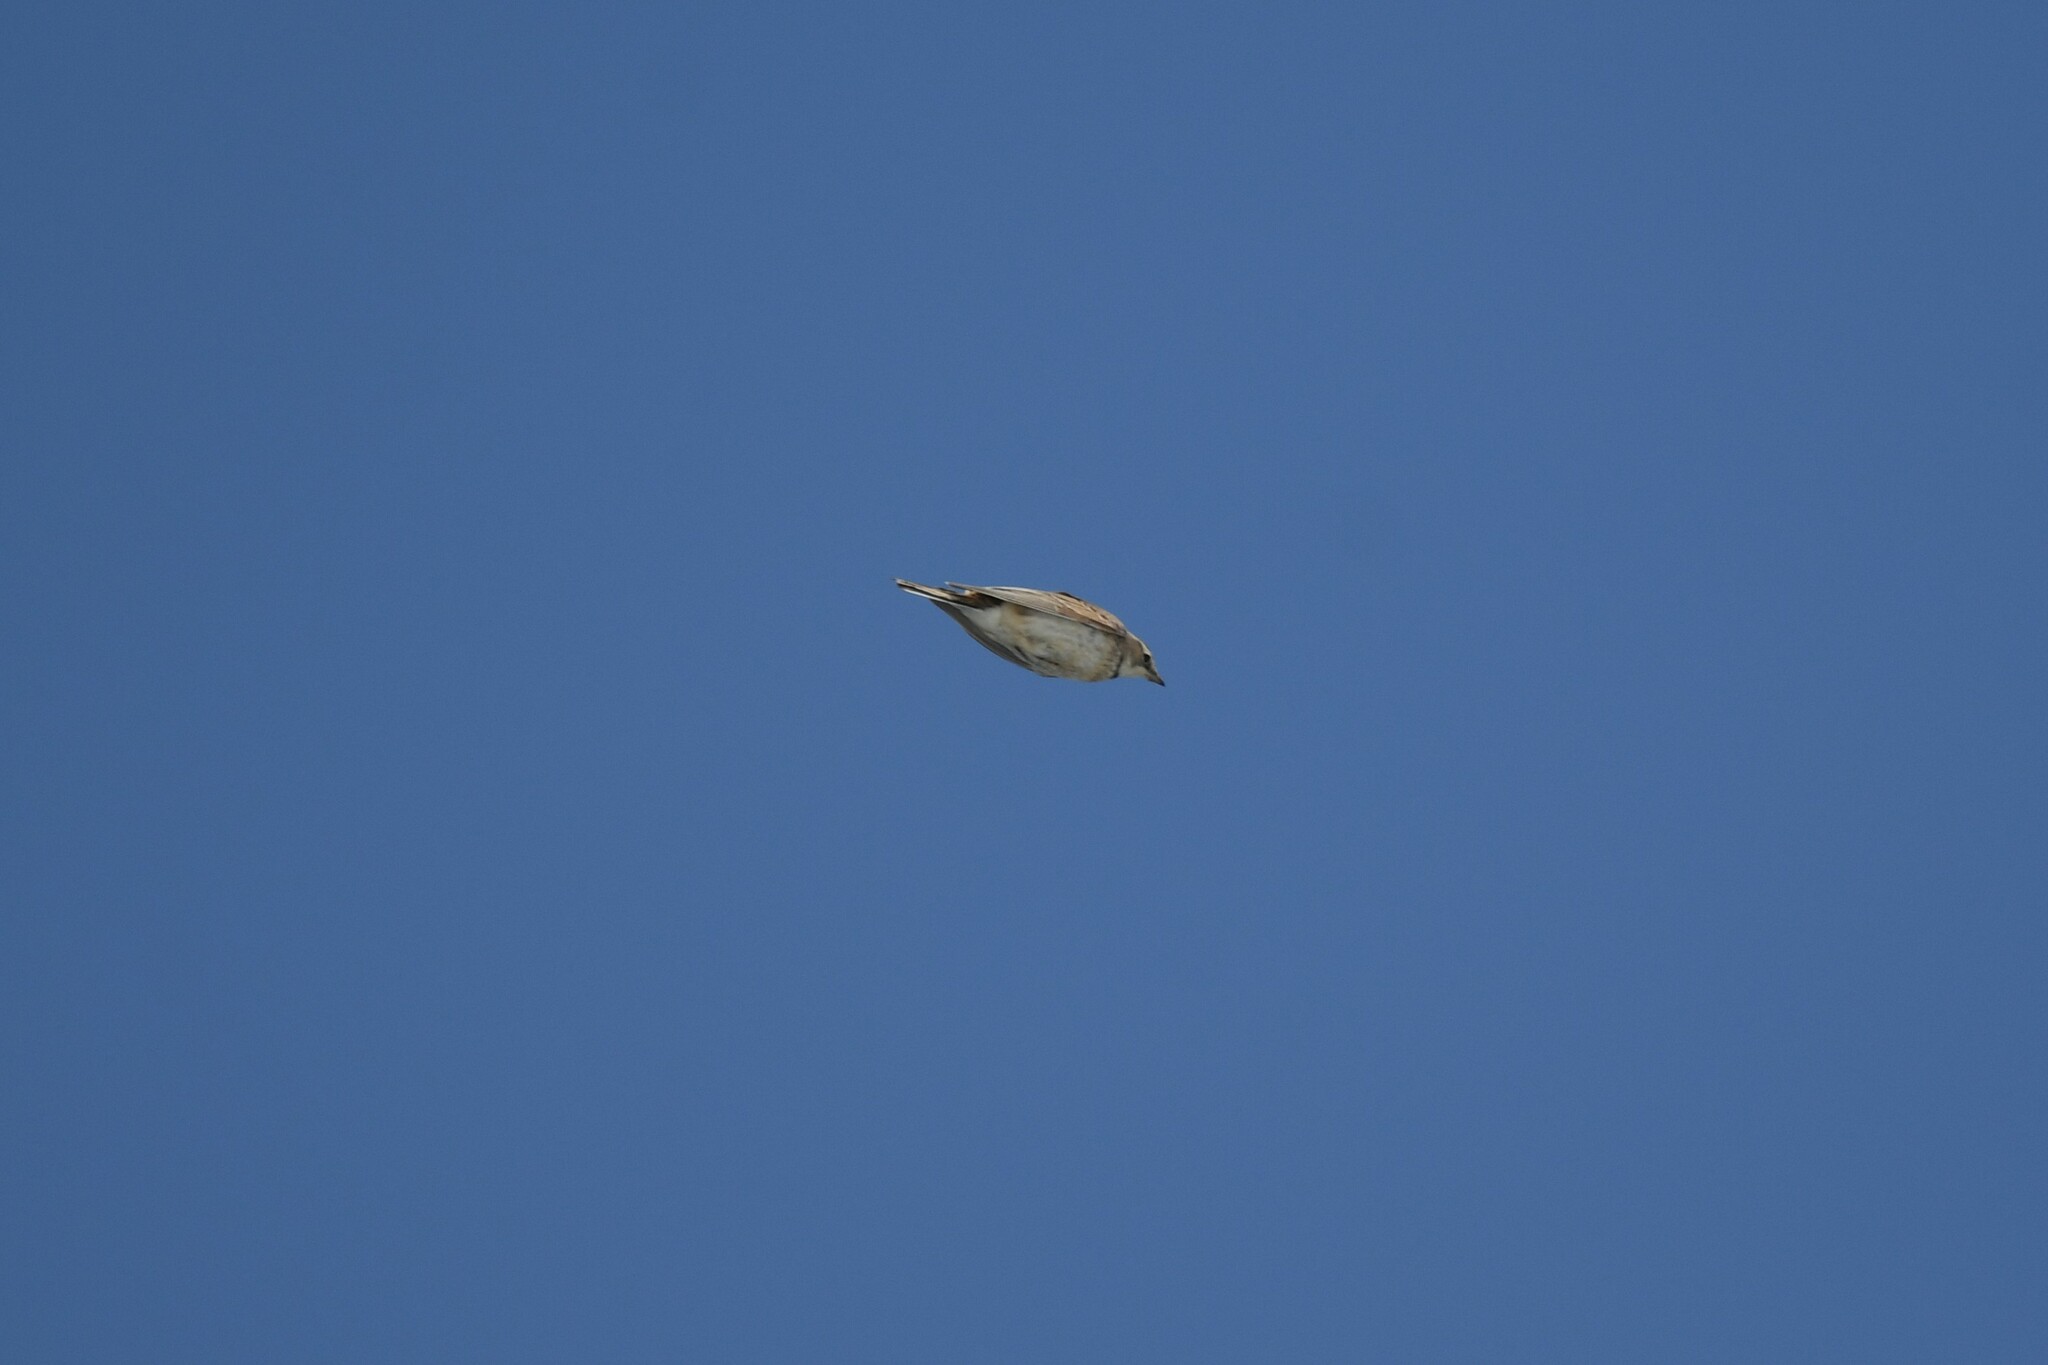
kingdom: Animalia
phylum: Chordata
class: Aves
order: Passeriformes
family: Alaudidae
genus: Eremophila
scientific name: Eremophila alpestris
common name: Horned lark
